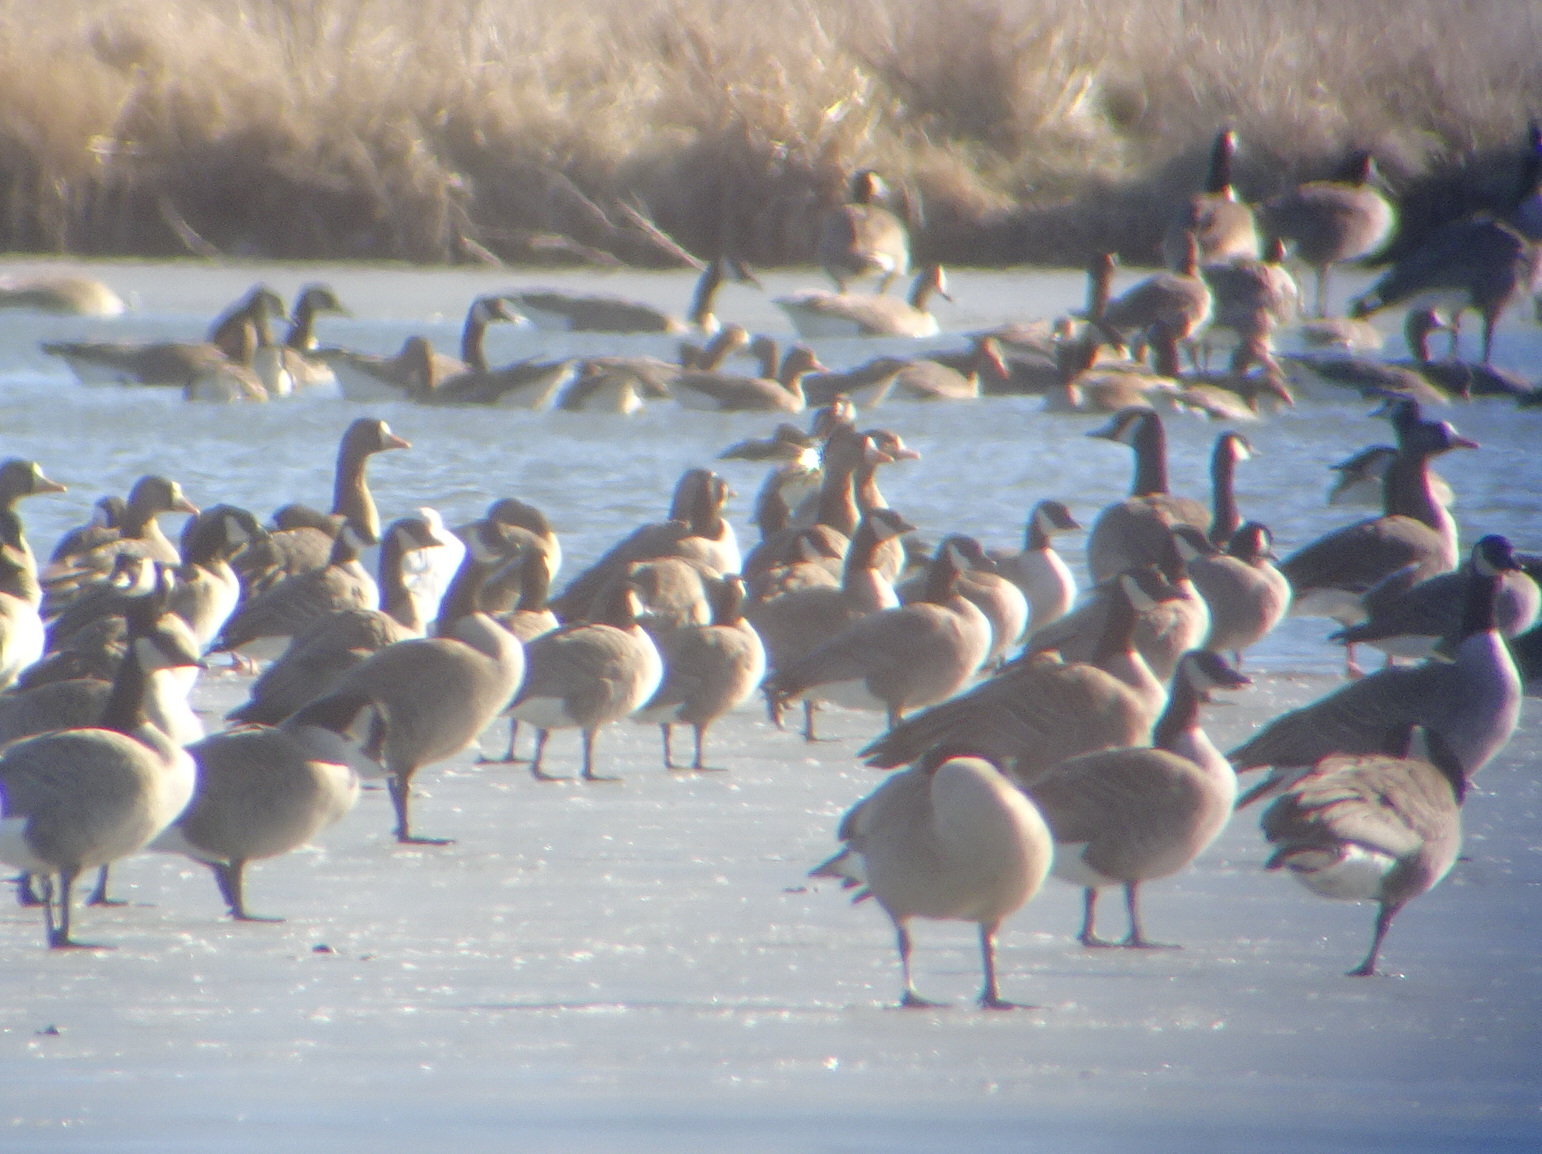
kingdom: Animalia
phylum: Chordata
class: Aves
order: Anseriformes
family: Anatidae
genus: Branta
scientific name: Branta hutchinsii
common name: Cackling goose
